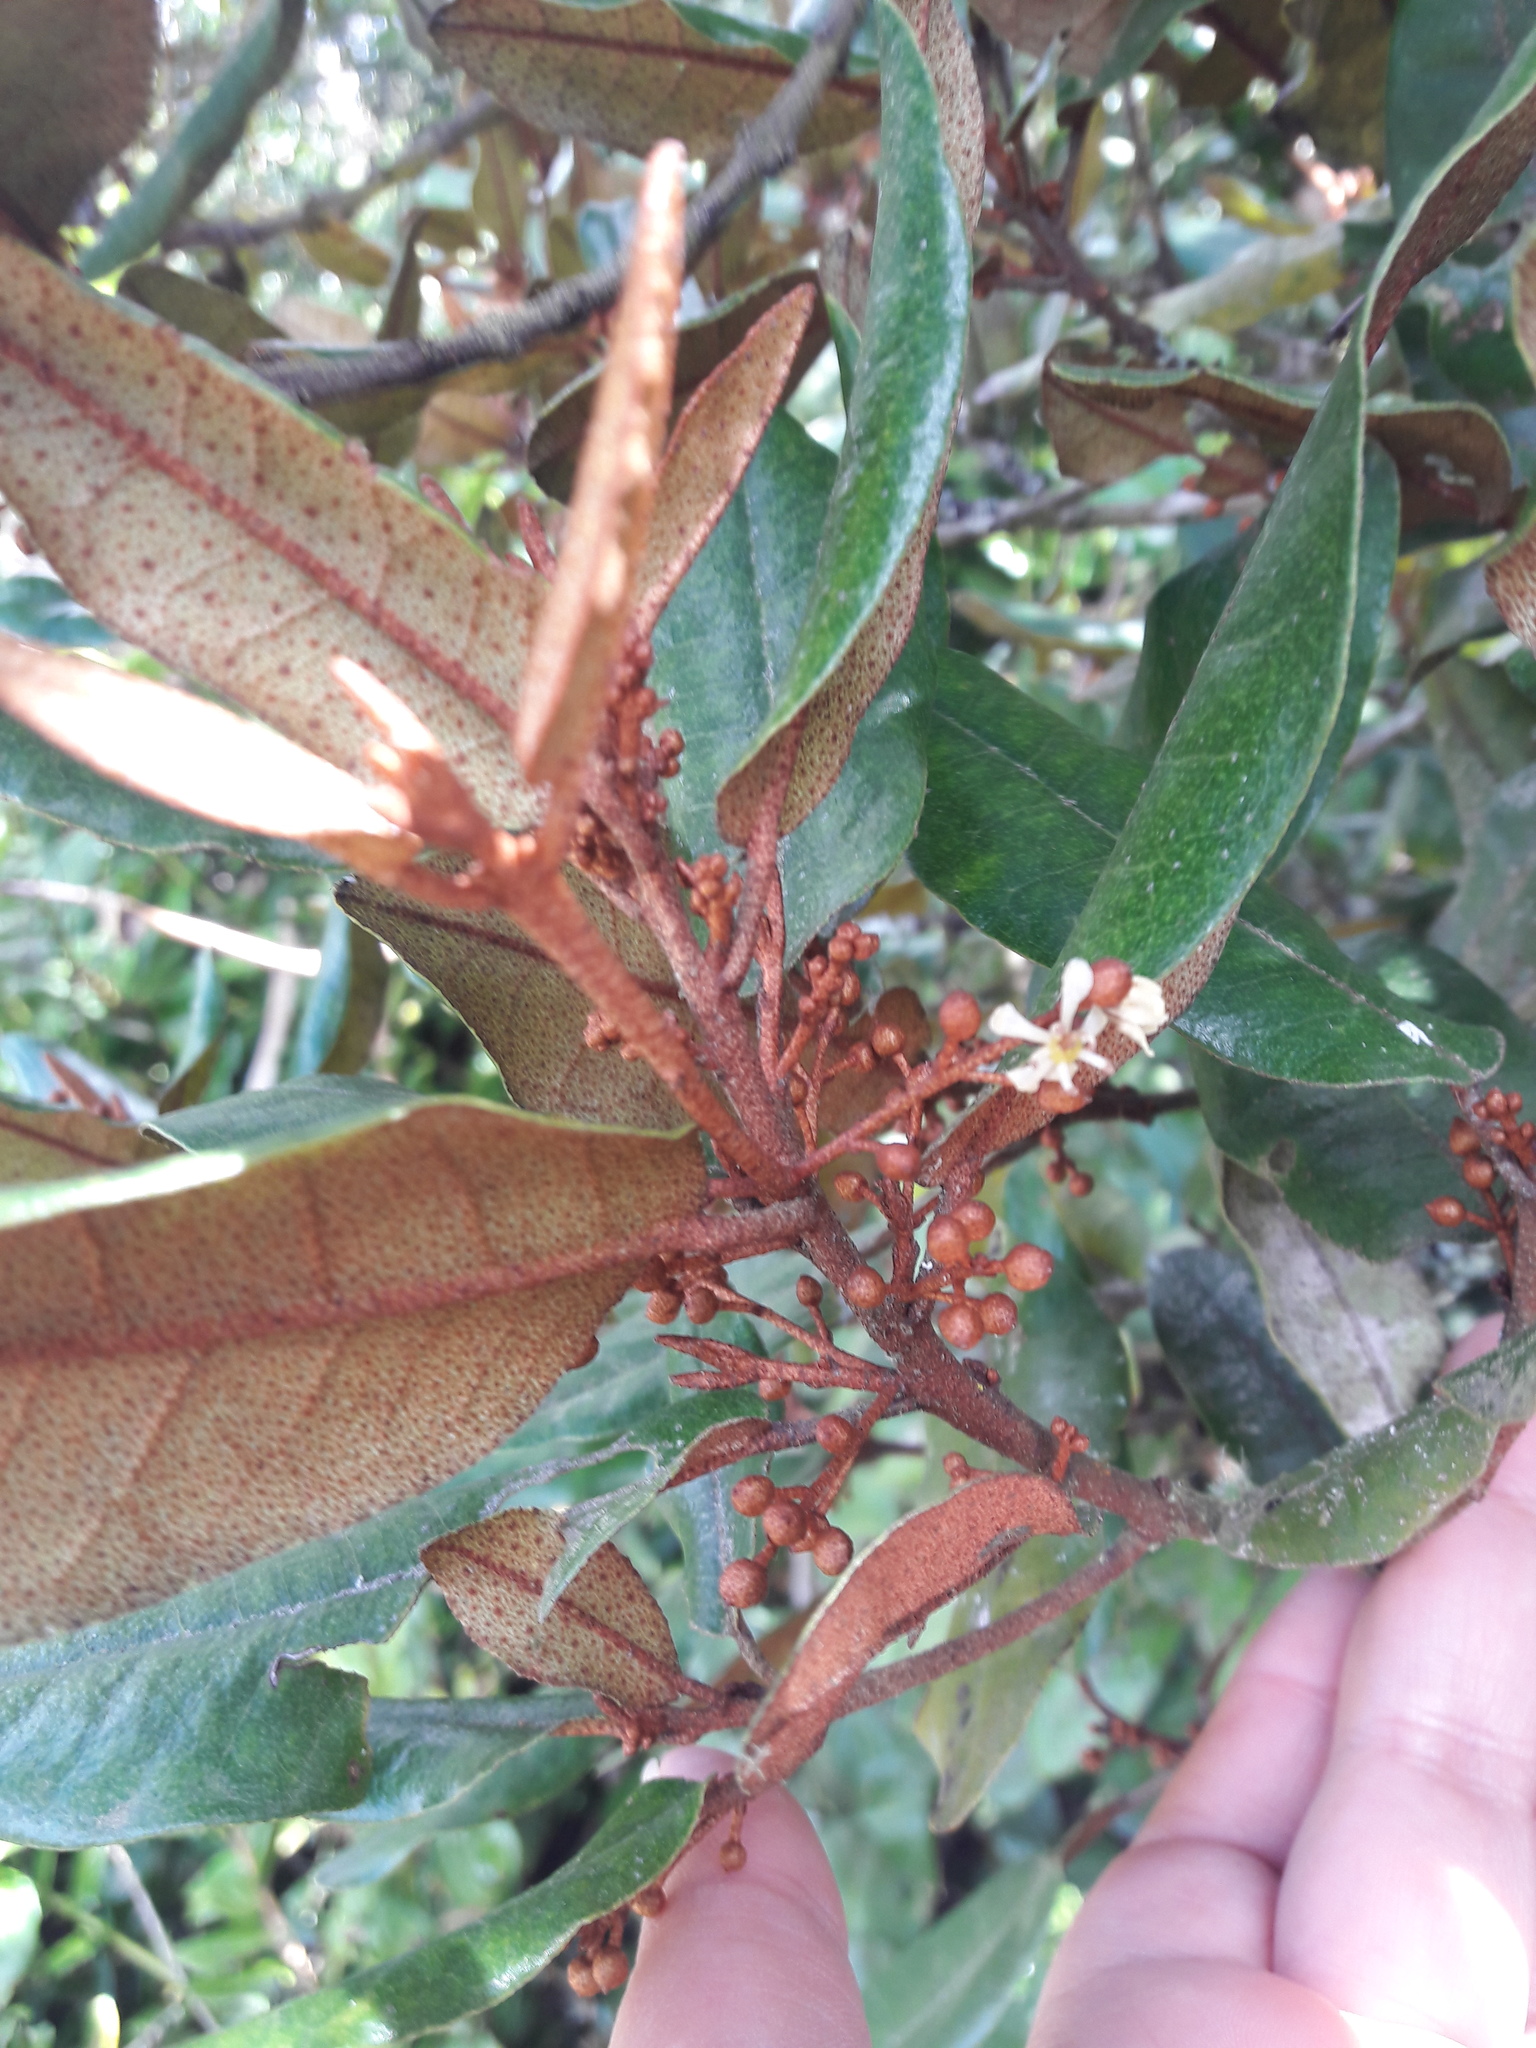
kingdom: Plantae
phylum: Tracheophyta
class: Magnoliopsida
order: Berberidopsidales
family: Aextoxicaceae
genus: Aextoxicon
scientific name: Aextoxicon punctatum
